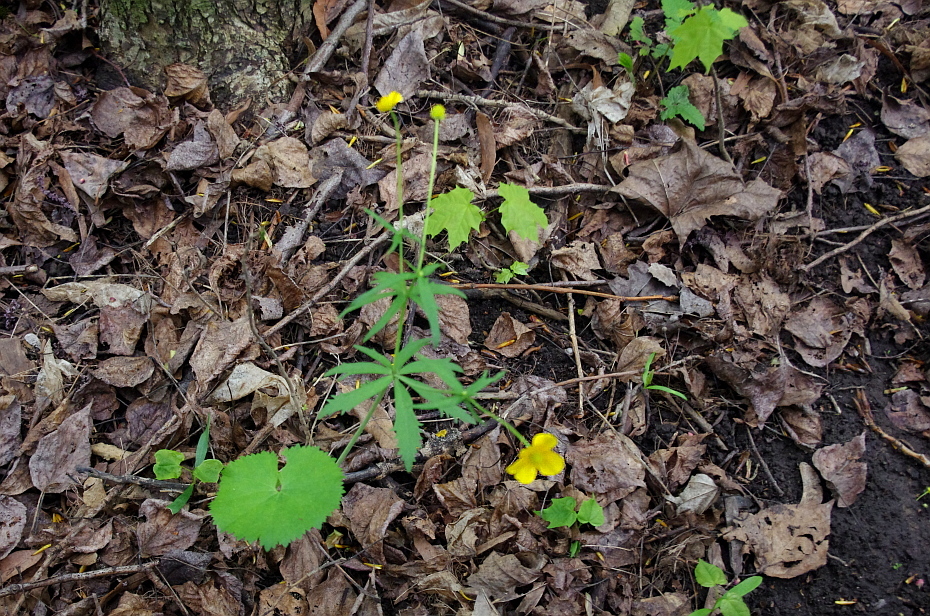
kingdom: Plantae
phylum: Tracheophyta
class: Magnoliopsida
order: Ranunculales
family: Ranunculaceae
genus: Ranunculus
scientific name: Ranunculus cassubicus
